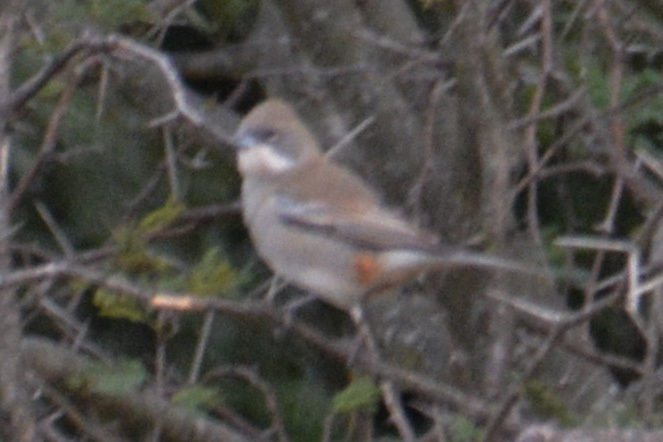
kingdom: Animalia
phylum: Chordata
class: Aves
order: Passeriformes
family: Thraupidae
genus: Diuca
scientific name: Diuca diuca
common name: Common diuca finch
